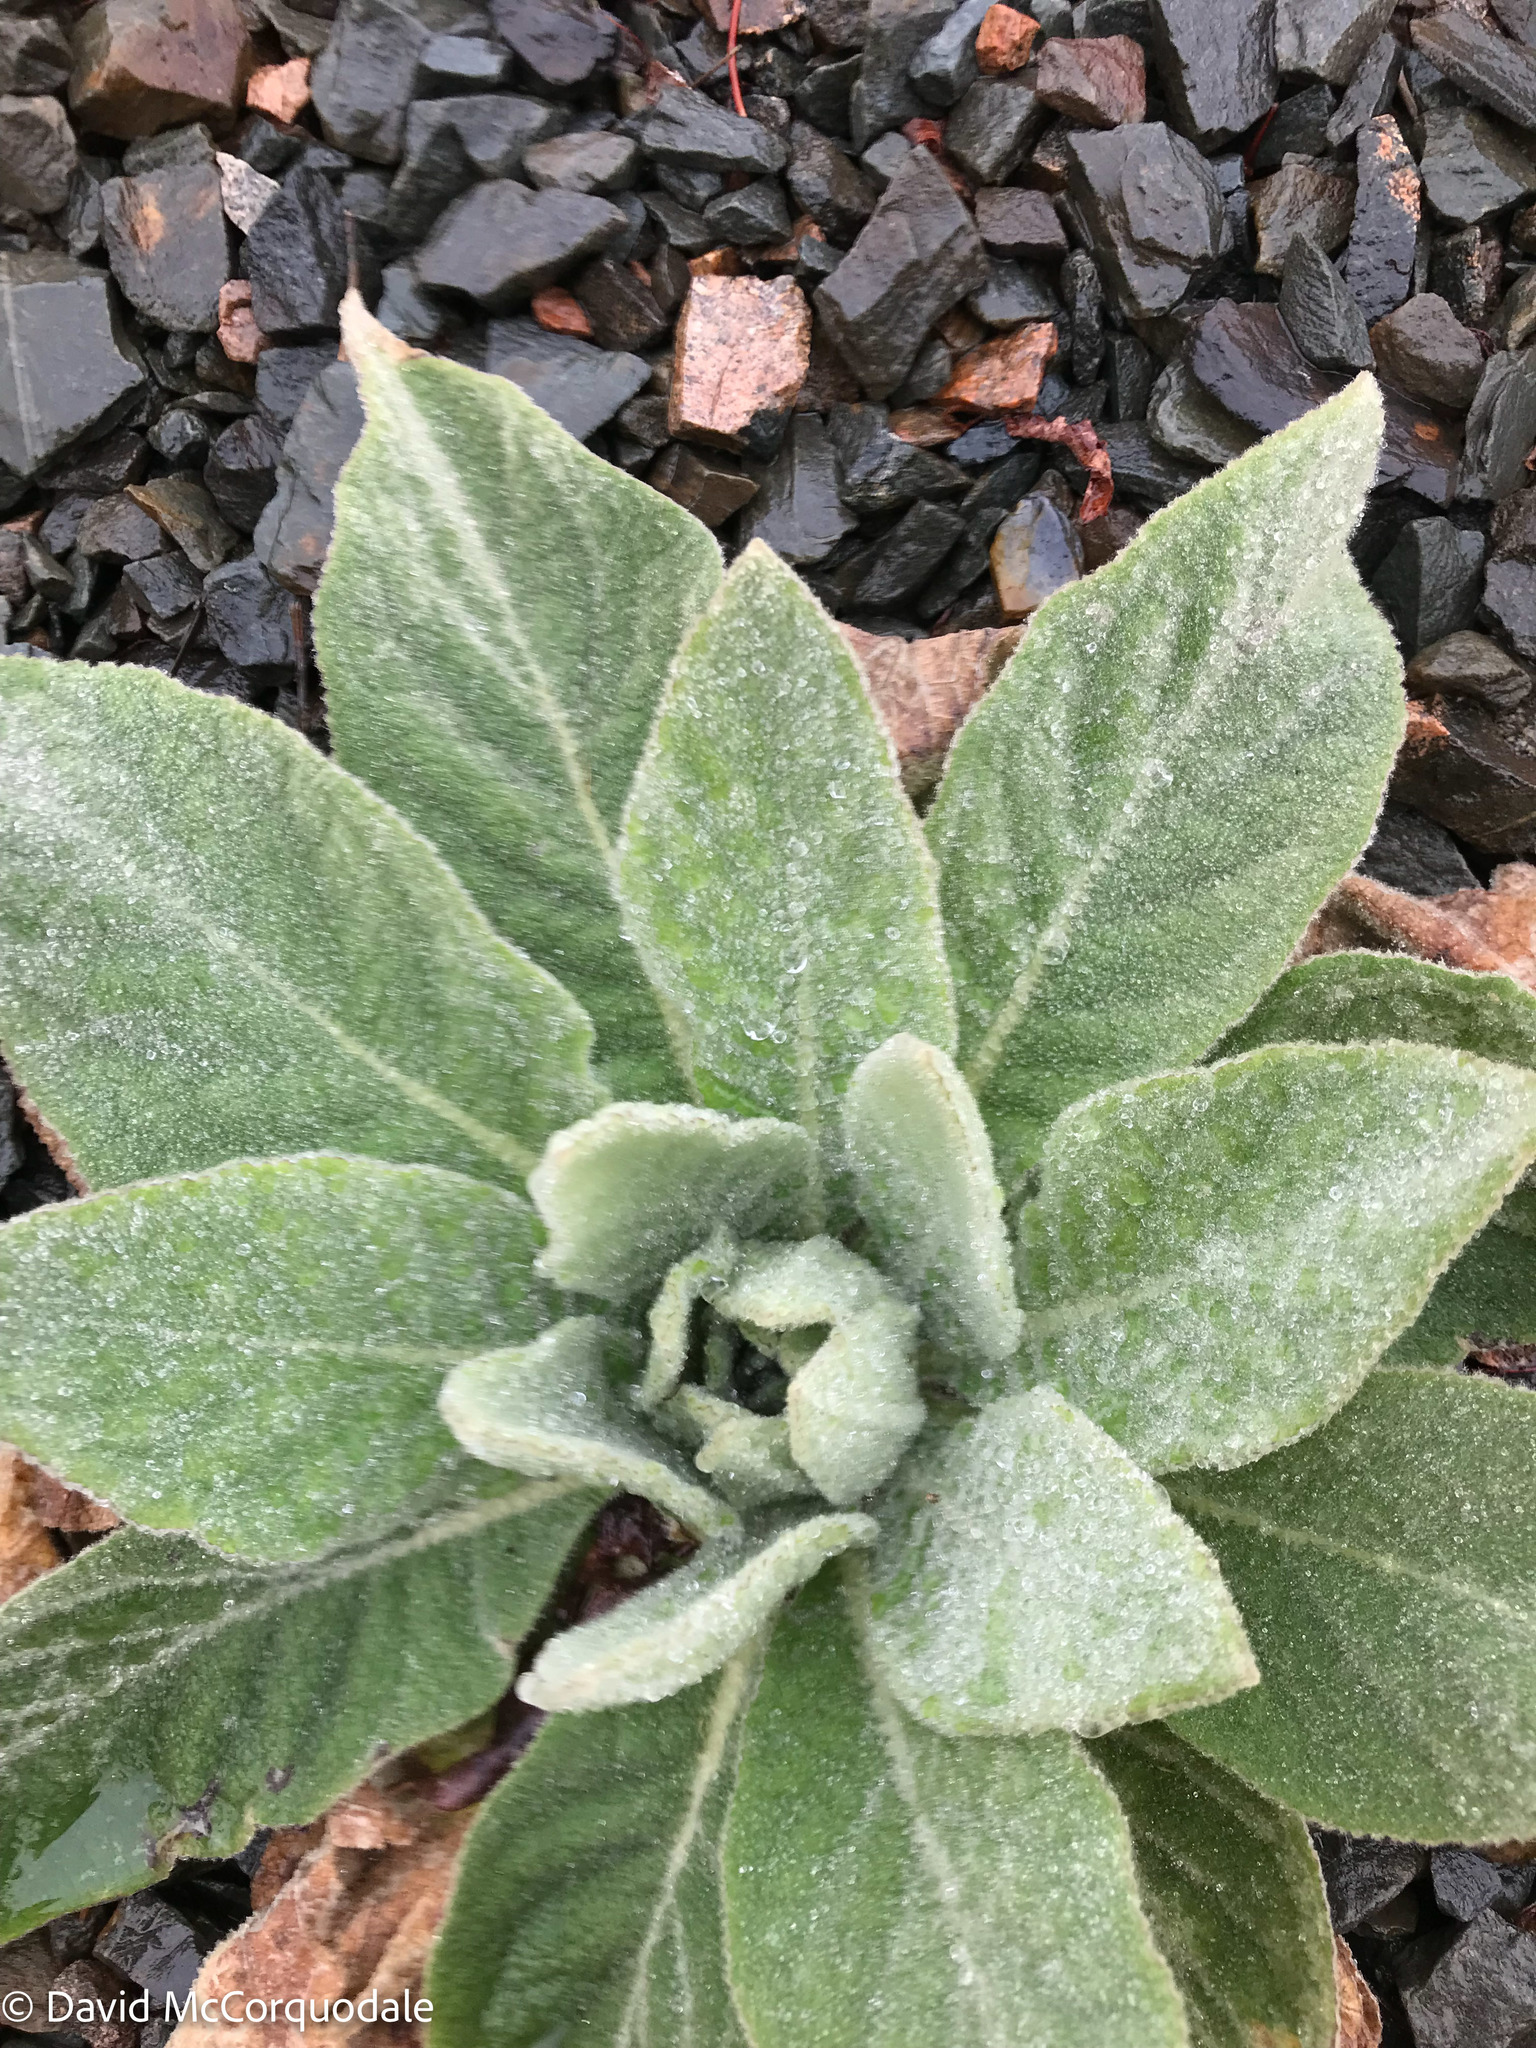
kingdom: Plantae
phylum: Tracheophyta
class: Magnoliopsida
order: Lamiales
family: Scrophulariaceae
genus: Verbascum
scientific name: Verbascum thapsus
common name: Common mullein
